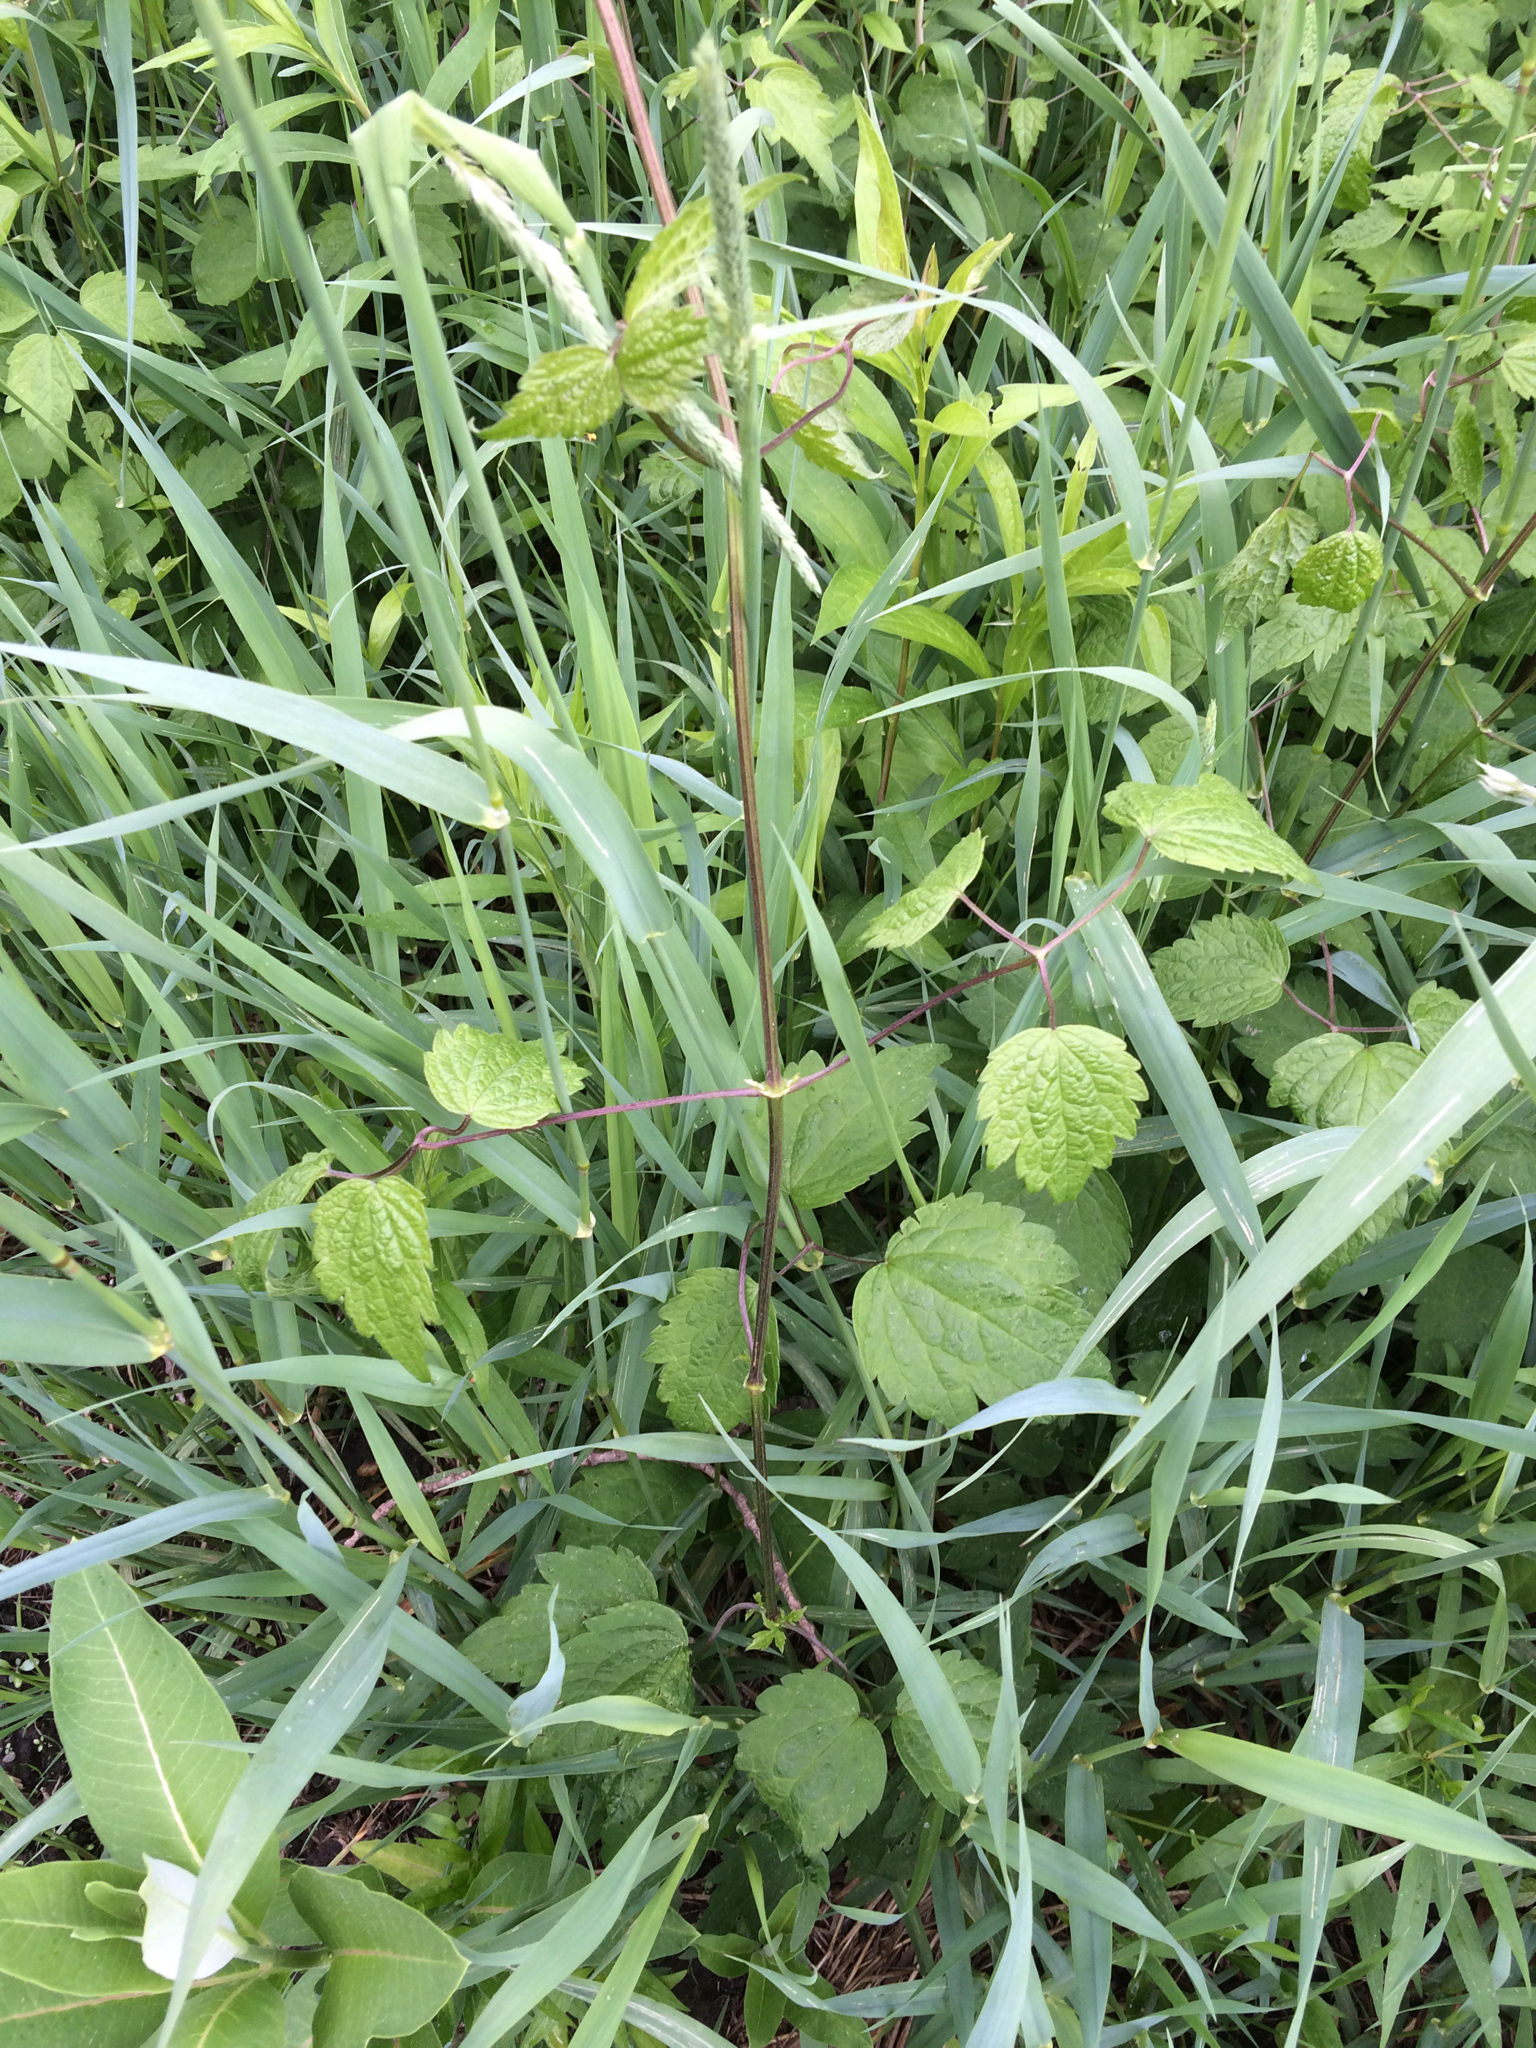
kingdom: Plantae
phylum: Tracheophyta
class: Magnoliopsida
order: Ranunculales
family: Ranunculaceae
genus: Clematis
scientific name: Clematis virginiana
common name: Virgin's-bower
